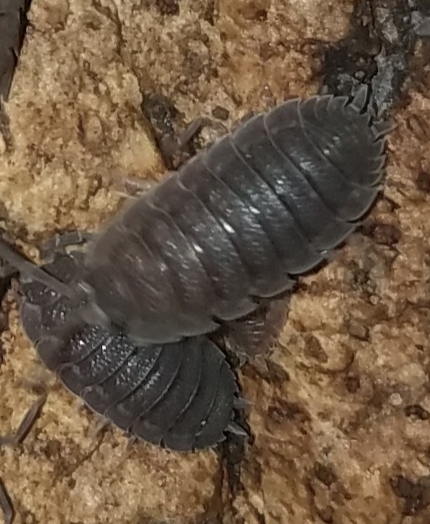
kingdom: Animalia
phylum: Arthropoda
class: Malacostraca
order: Isopoda
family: Porcellionidae
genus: Porcellio
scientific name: Porcellio scaber
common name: Common rough woodlouse
